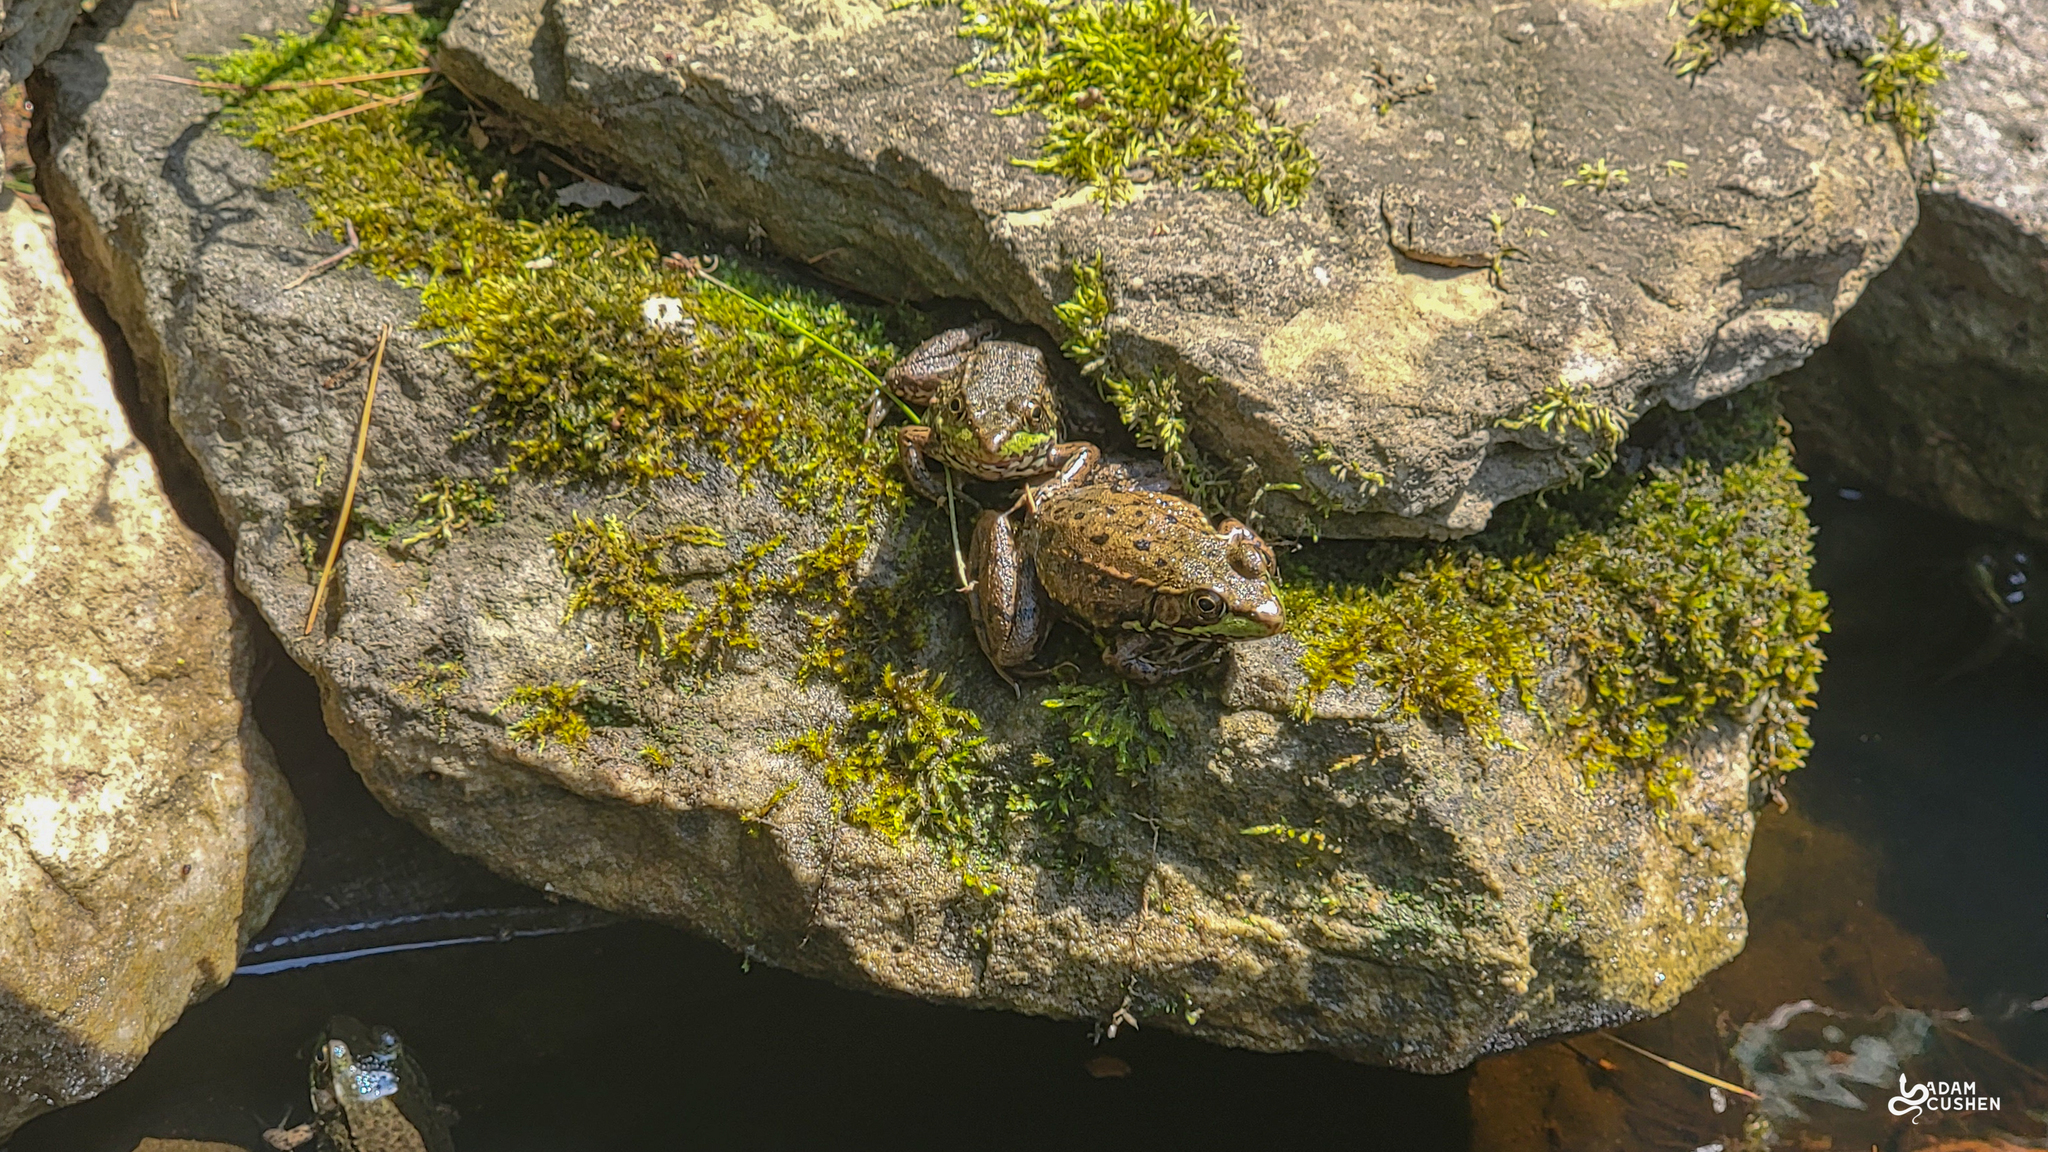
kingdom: Animalia
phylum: Chordata
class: Amphibia
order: Anura
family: Ranidae
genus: Lithobates
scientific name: Lithobates clamitans
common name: Green frog
